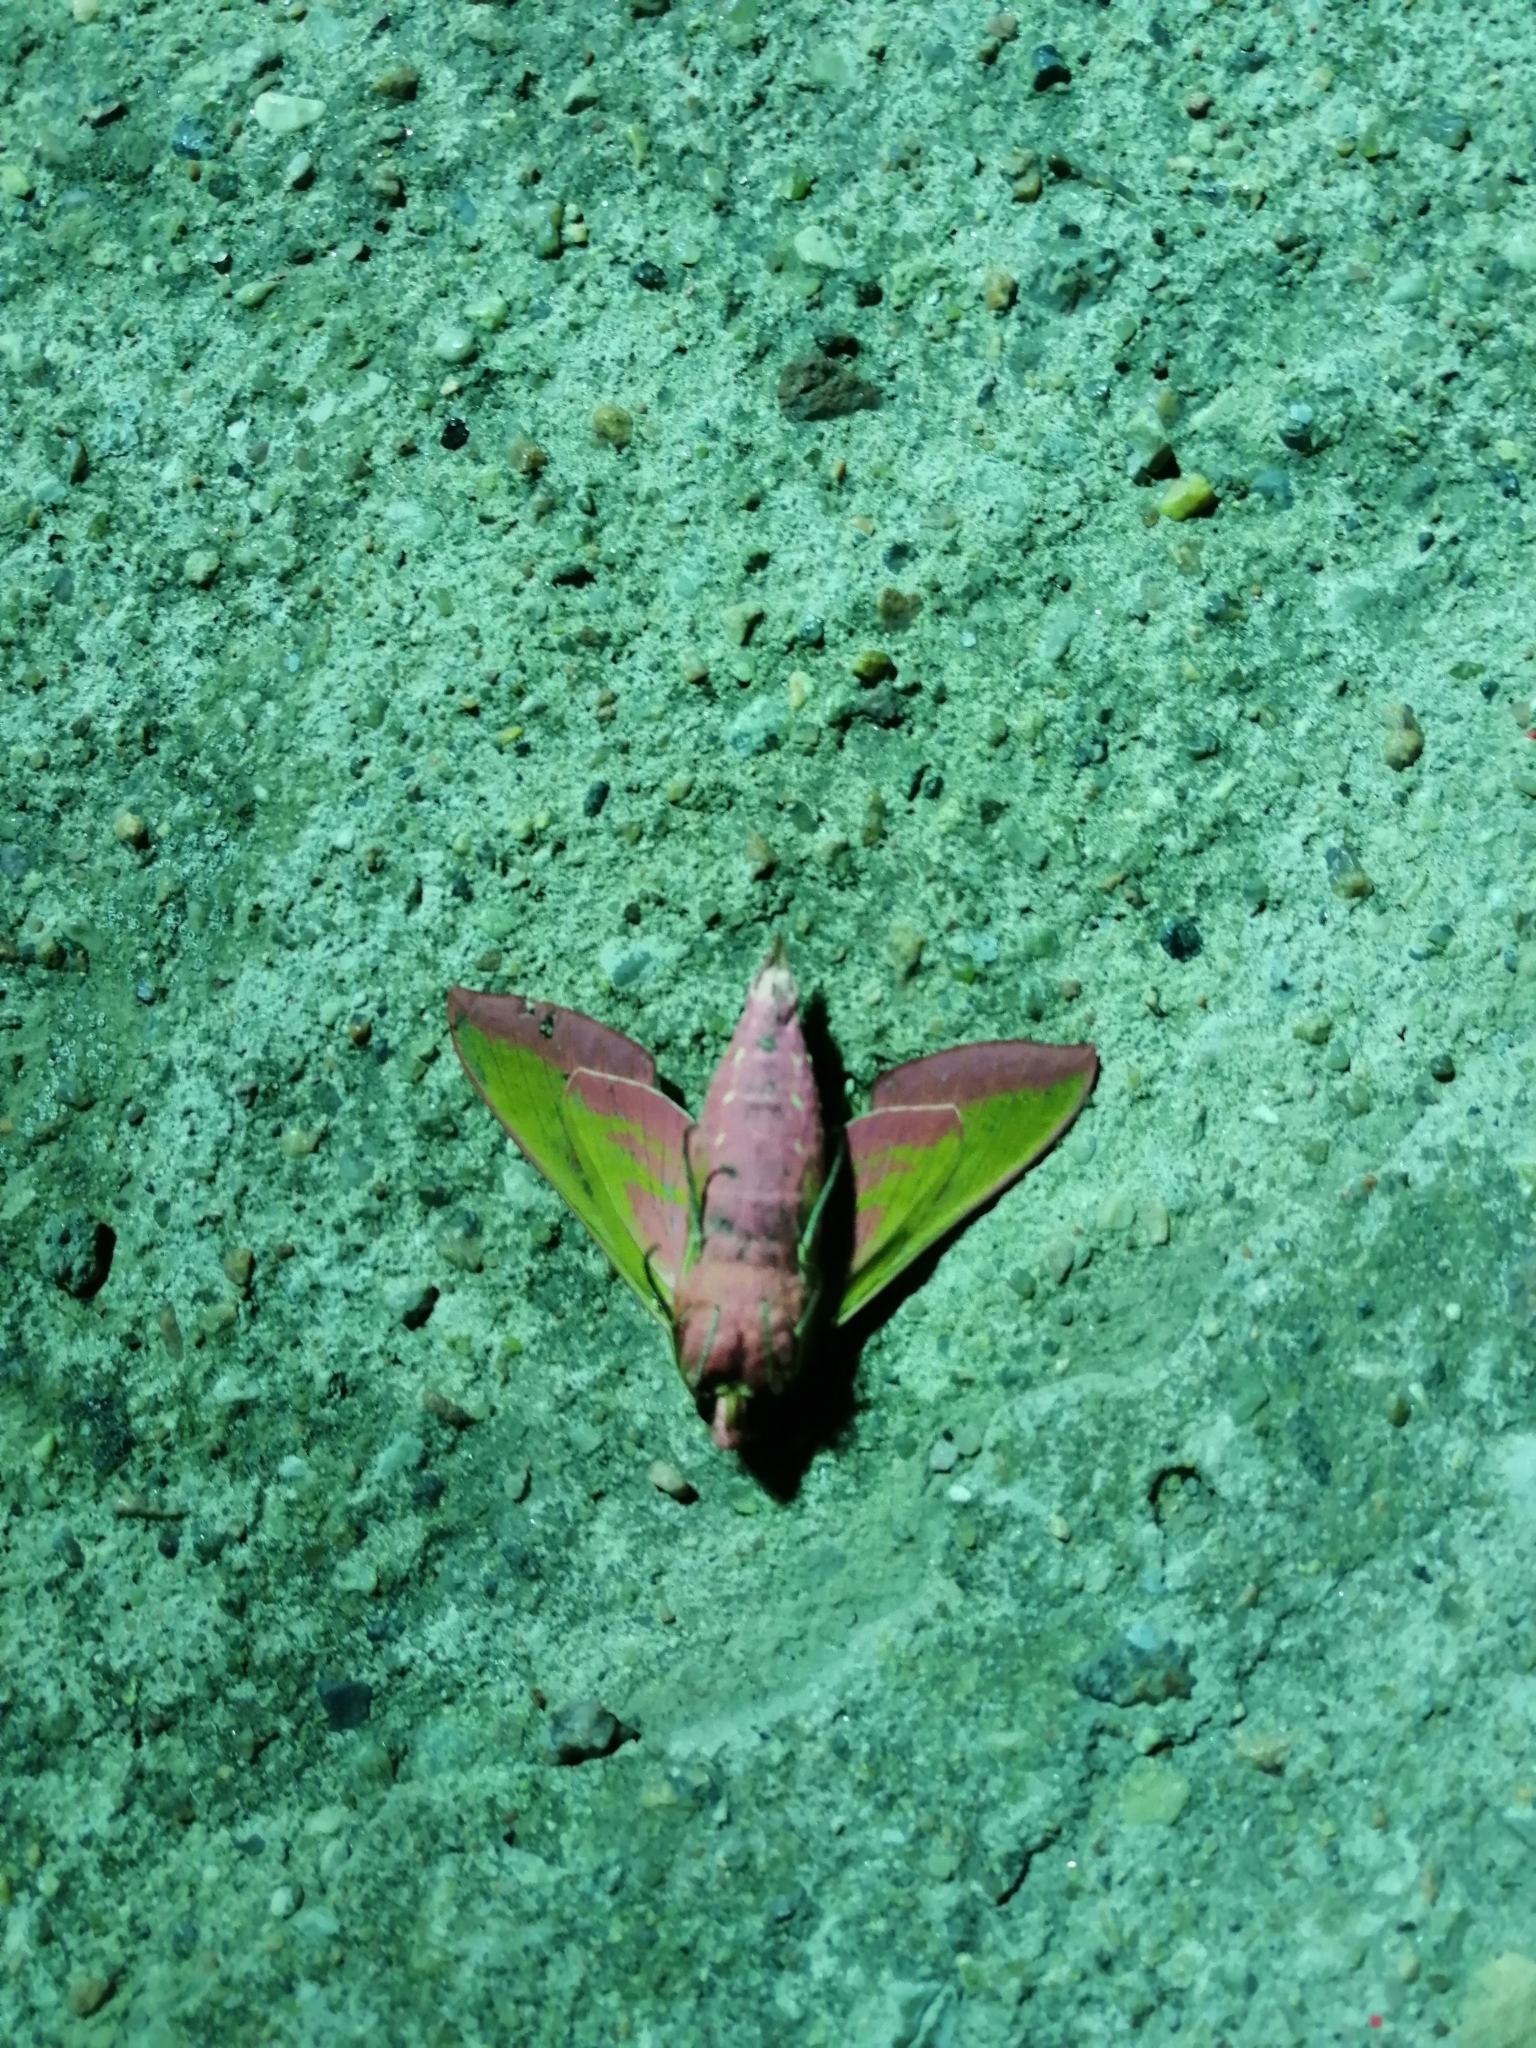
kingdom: Animalia
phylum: Arthropoda
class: Insecta
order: Lepidoptera
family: Sphingidae
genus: Deilephila
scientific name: Deilephila elpenor
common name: Elephant hawk-moth
